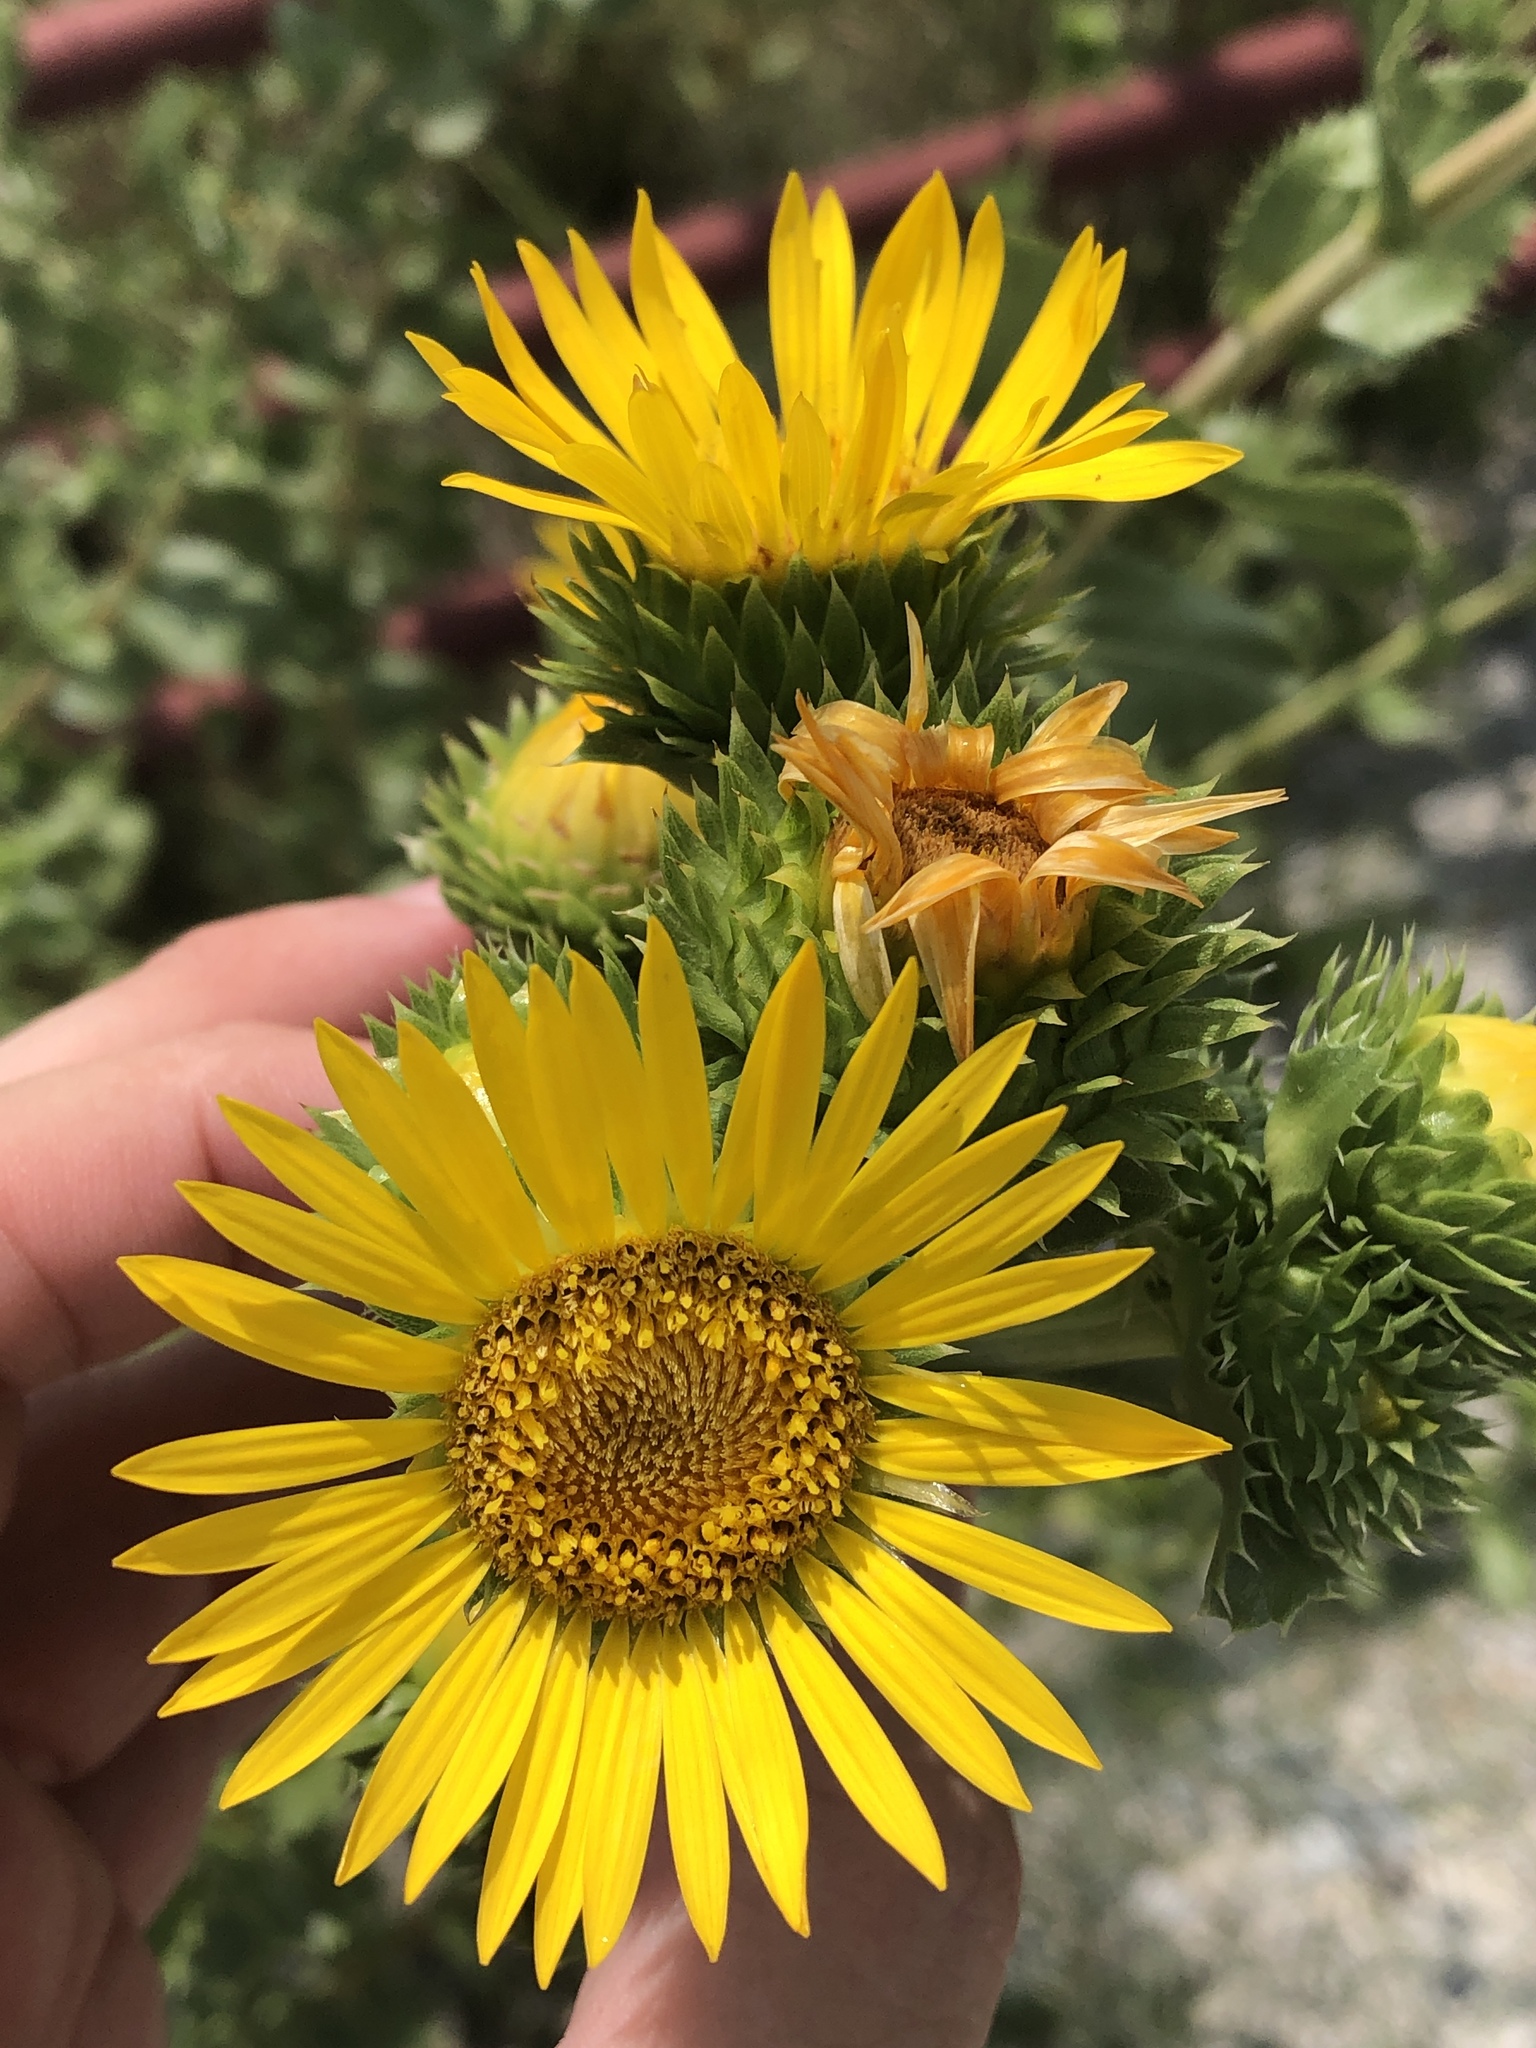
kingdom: Plantae
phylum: Tracheophyta
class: Magnoliopsida
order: Asterales
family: Asteraceae
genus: Grindelia
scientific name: Grindelia ciliata
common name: Goldenweed
